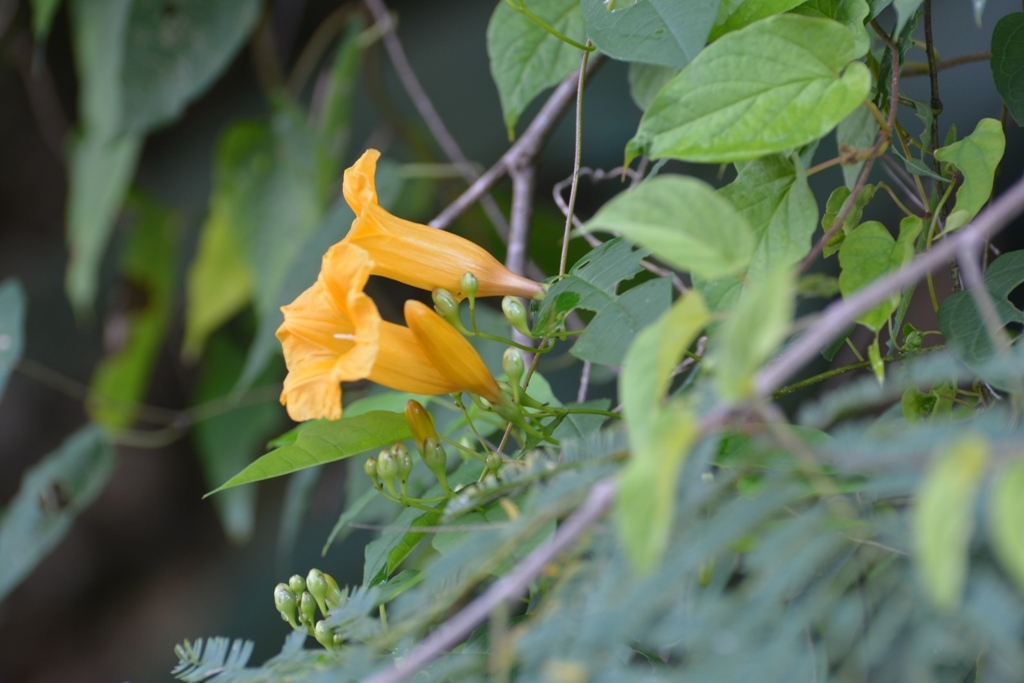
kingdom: Plantae
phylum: Tracheophyta
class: Magnoliopsida
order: Solanales
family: Convolvulaceae
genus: Ipomoea
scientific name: Ipomoea aurantiaca
